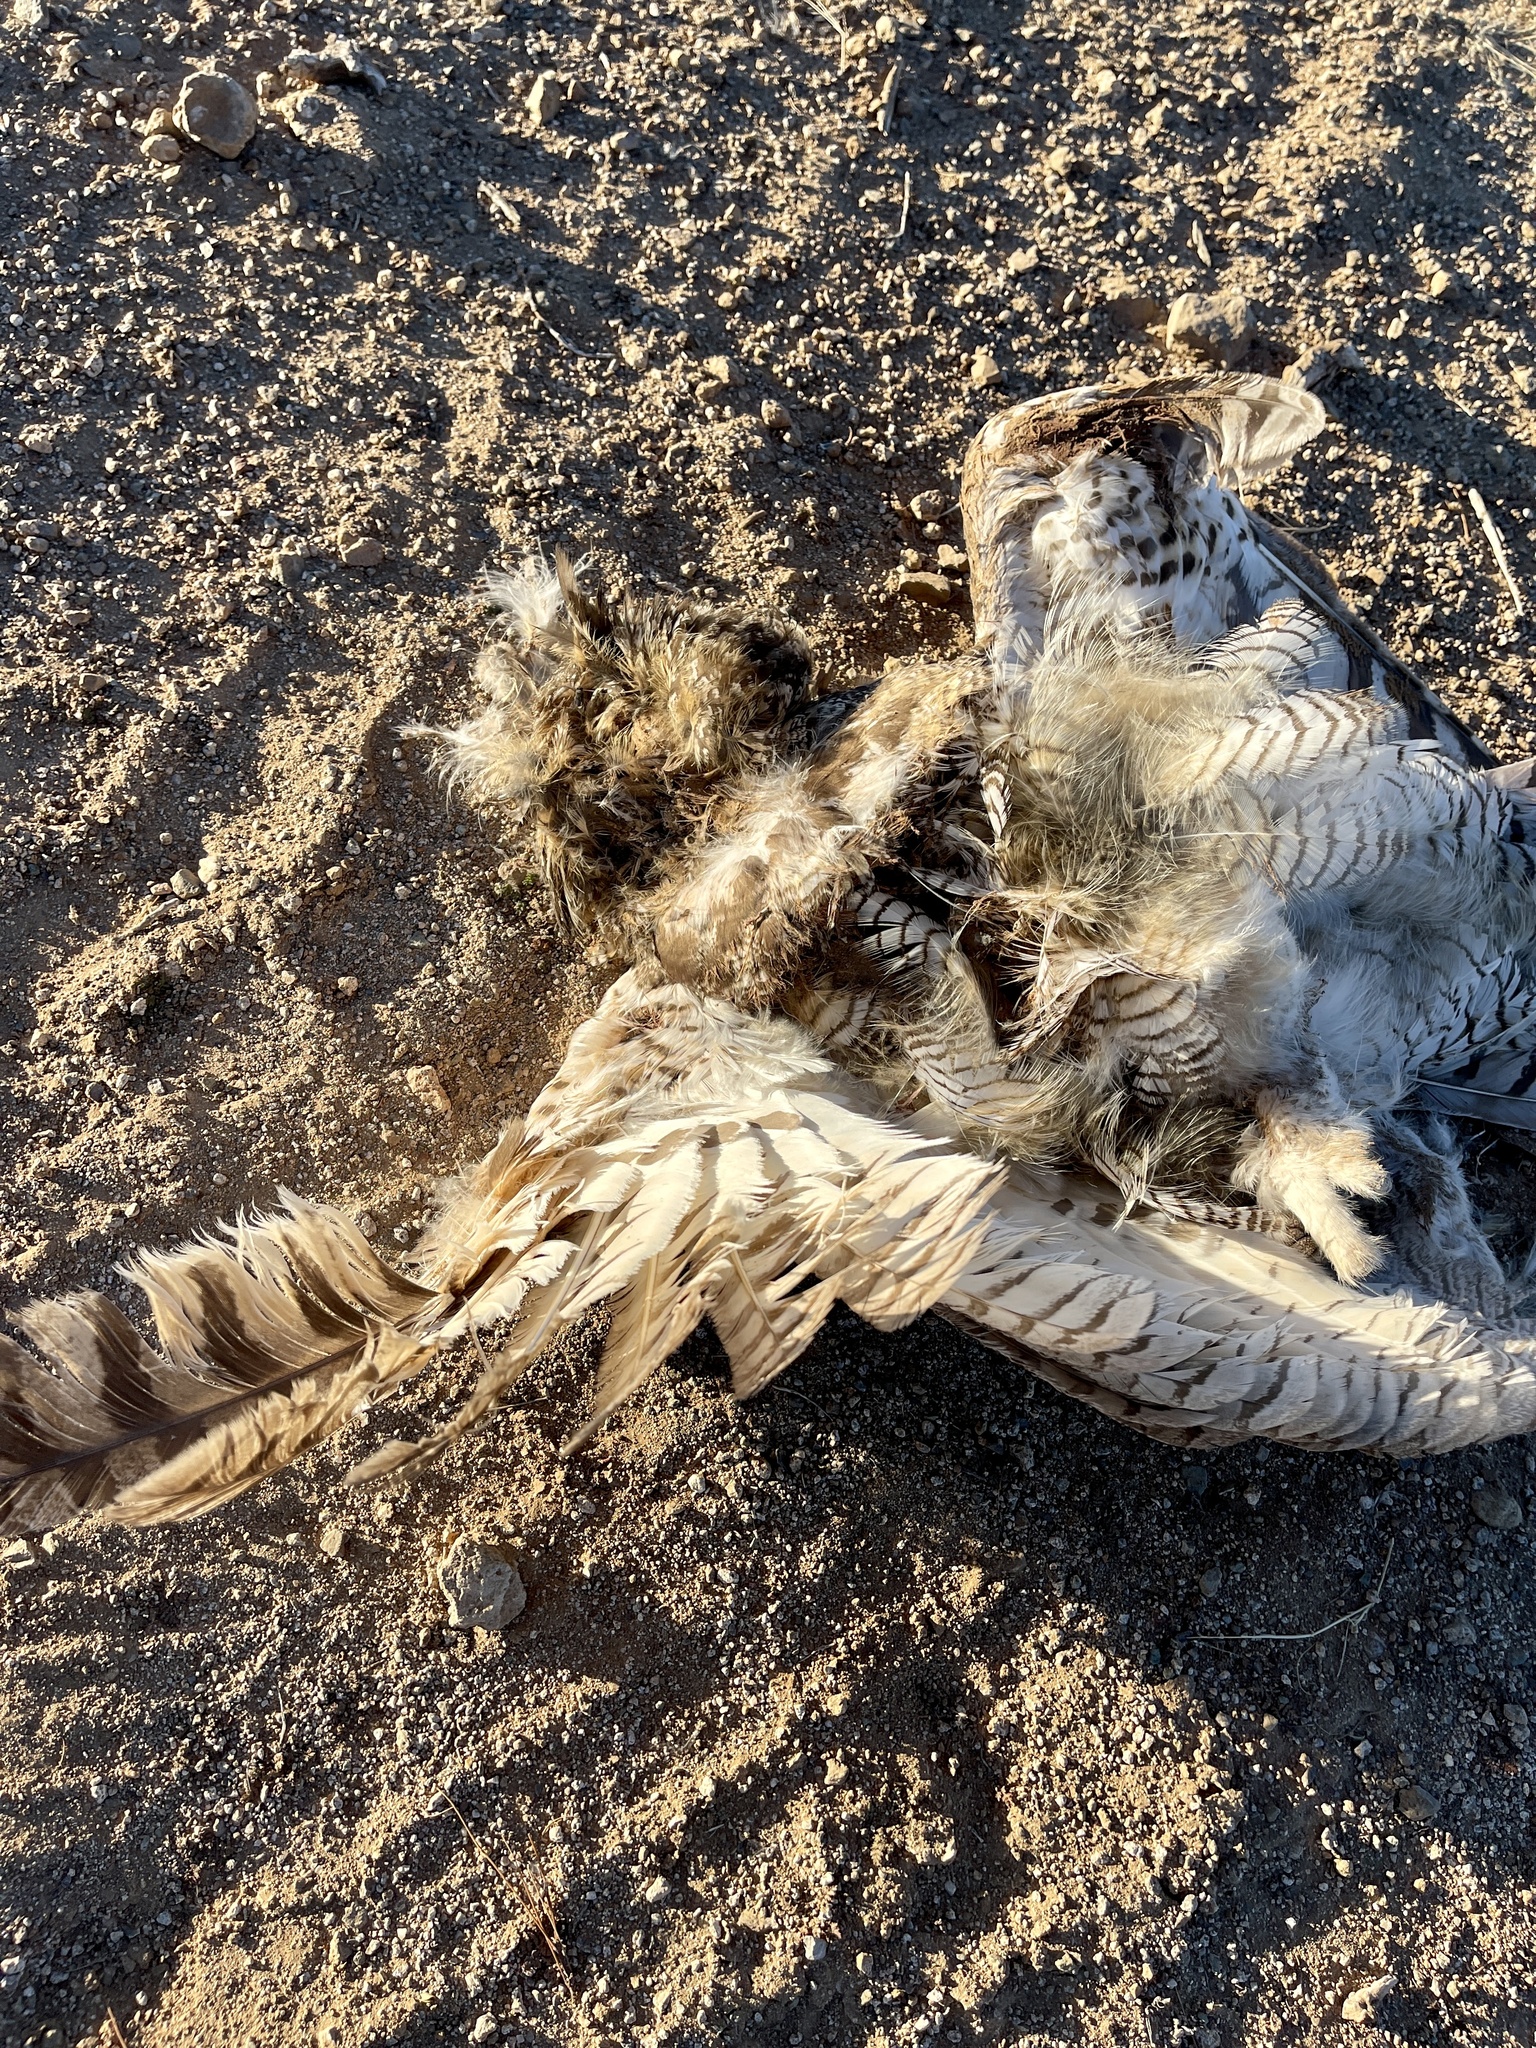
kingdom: Animalia
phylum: Chordata
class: Aves
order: Strigiformes
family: Strigidae
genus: Bubo
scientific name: Bubo virginianus
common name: Great horned owl
